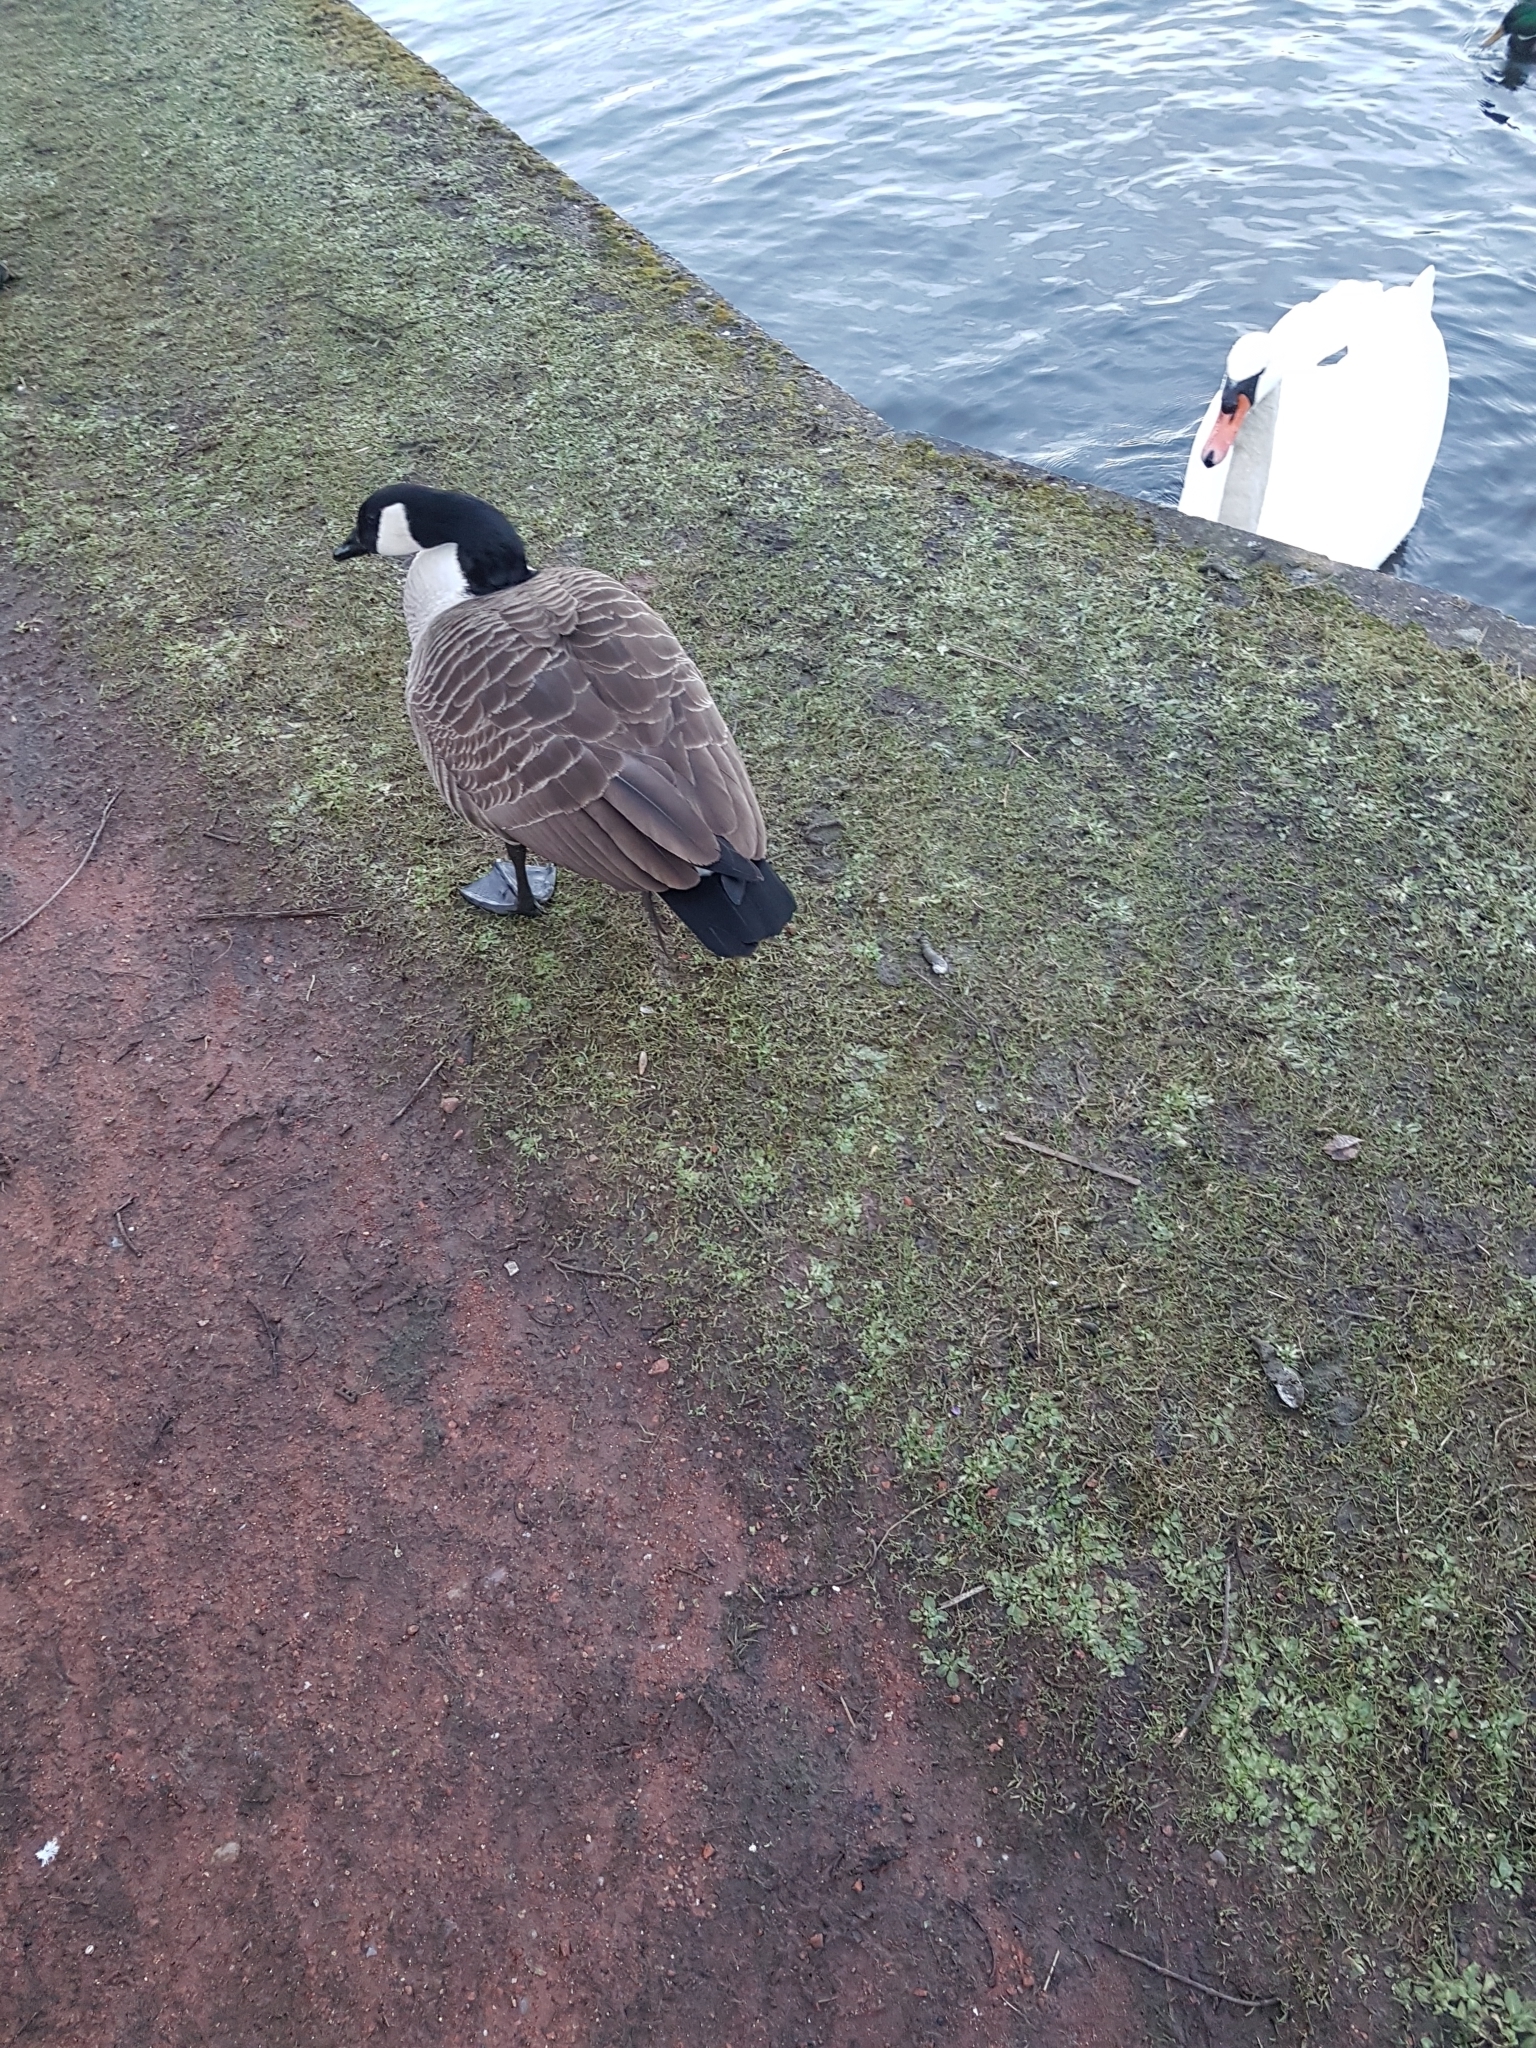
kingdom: Animalia
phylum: Chordata
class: Aves
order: Anseriformes
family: Anatidae
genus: Branta
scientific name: Branta canadensis
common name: Canada goose
